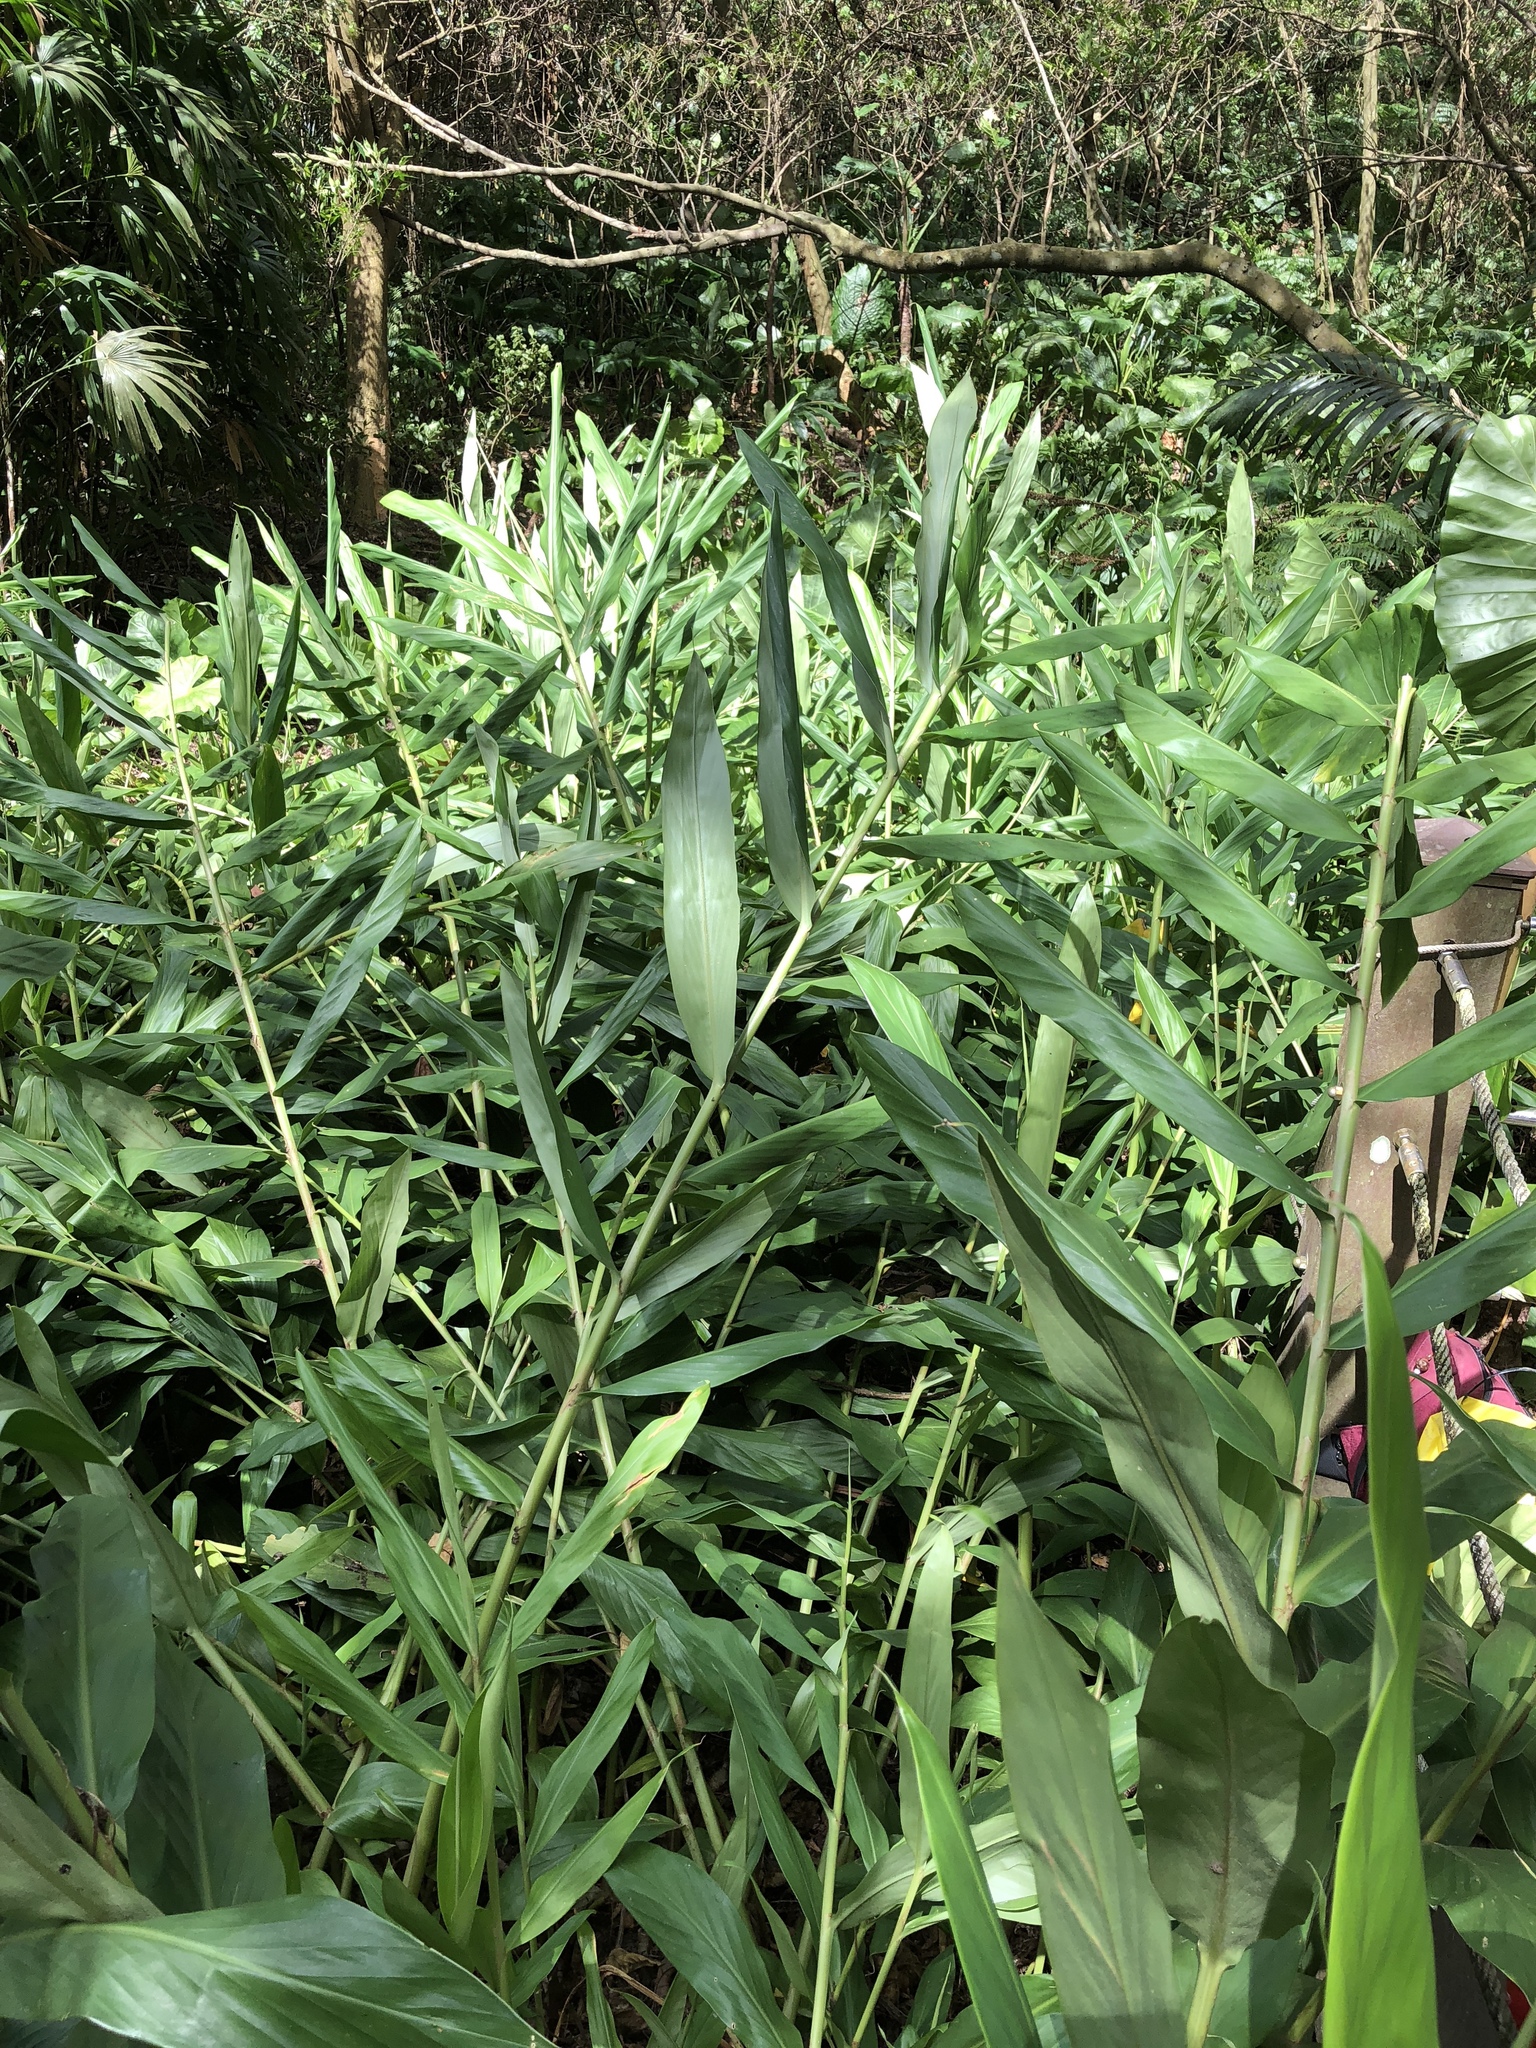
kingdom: Plantae
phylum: Tracheophyta
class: Liliopsida
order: Zingiberales
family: Zingiberaceae
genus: Hedychium
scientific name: Hedychium coronarium
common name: White garland-lily
